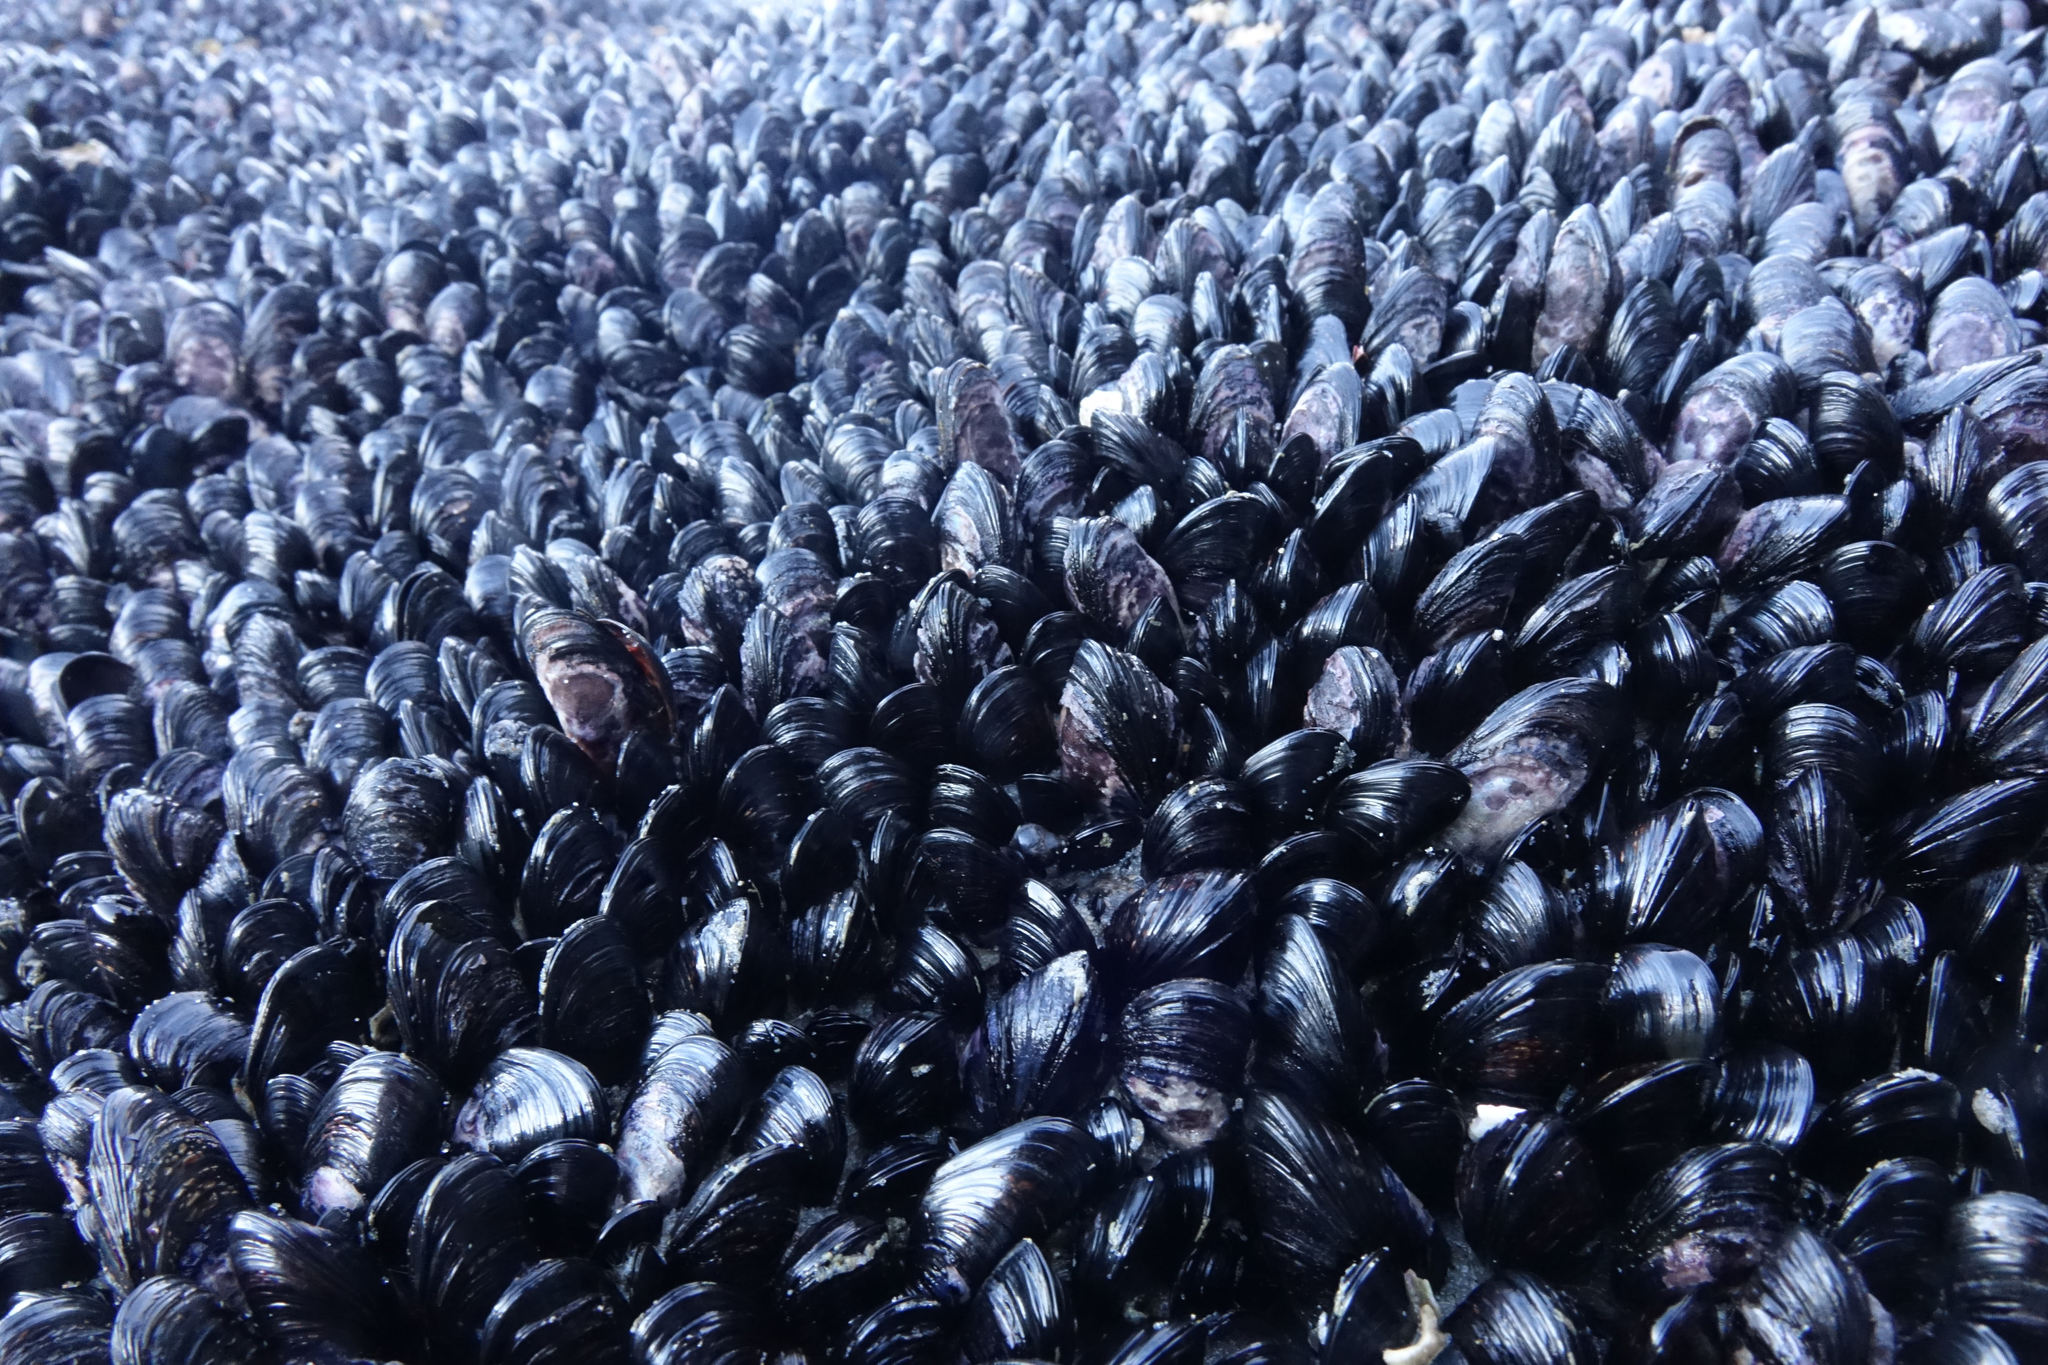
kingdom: Animalia
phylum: Mollusca
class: Bivalvia
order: Mytilida
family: Mytilidae
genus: Xenostrobus
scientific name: Xenostrobus neozelanicus
